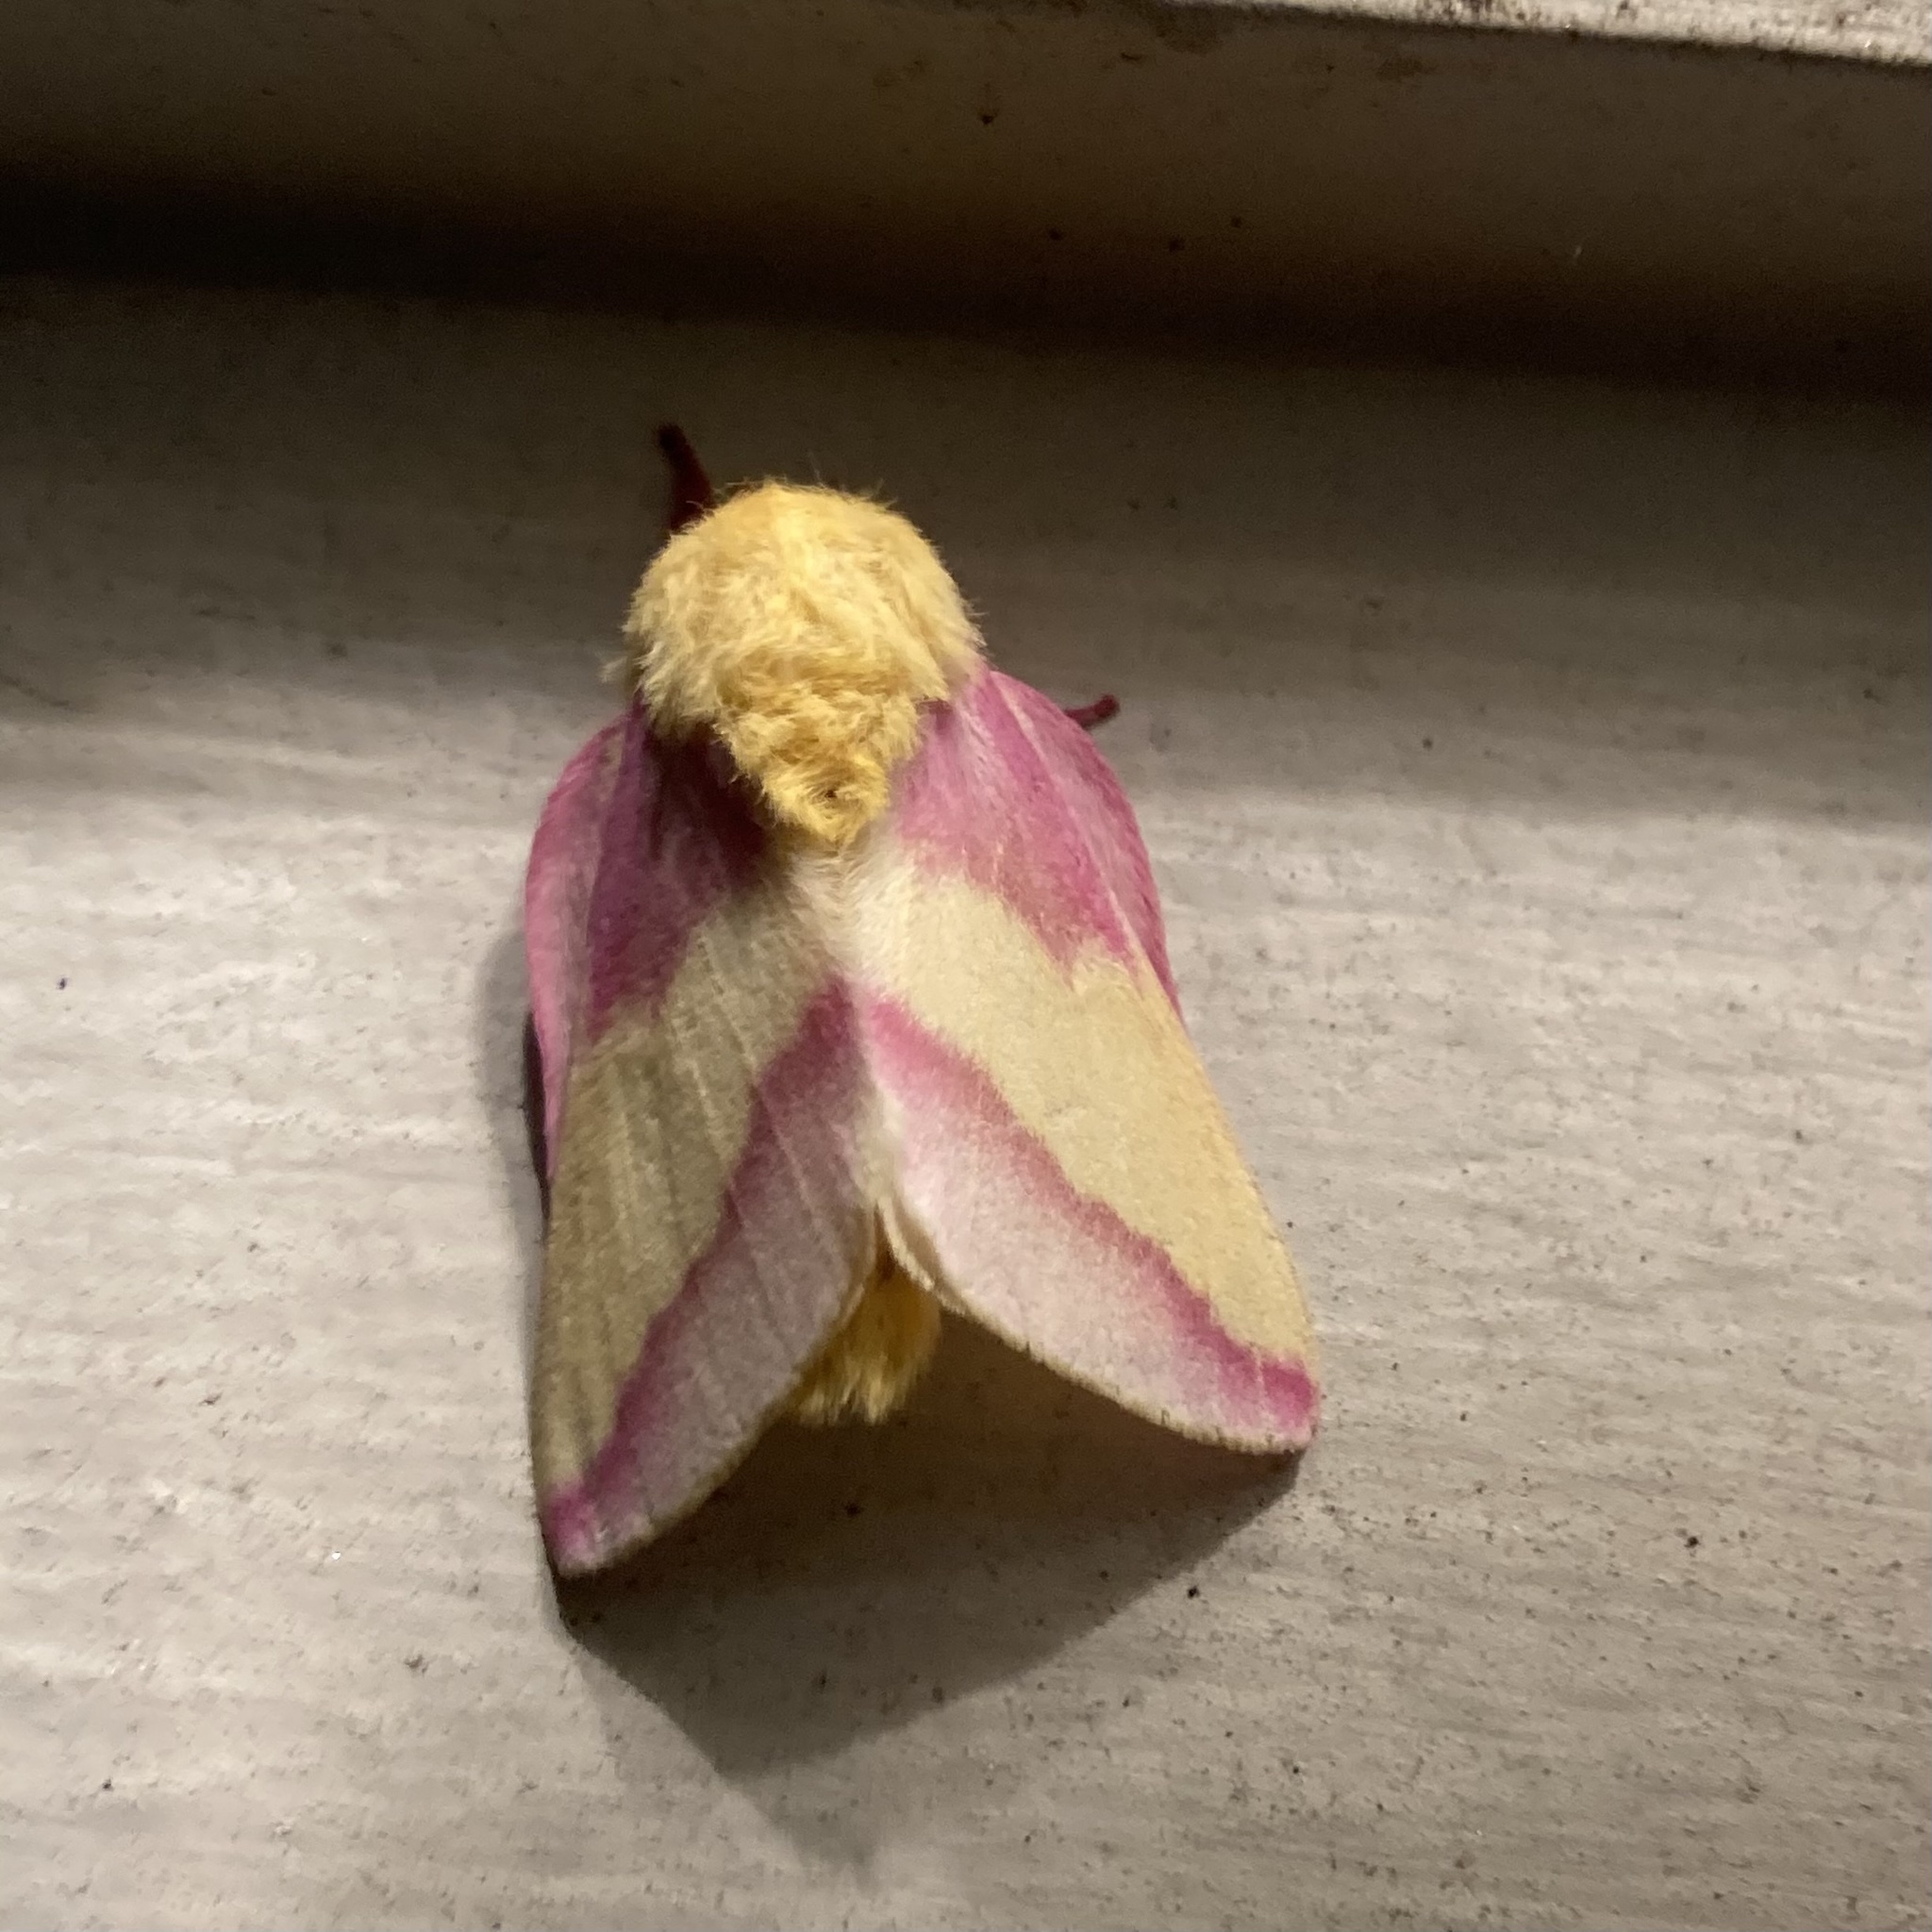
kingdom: Animalia
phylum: Arthropoda
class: Insecta
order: Lepidoptera
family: Saturniidae
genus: Dryocampa
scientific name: Dryocampa rubicunda
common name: Rosy maple moth
